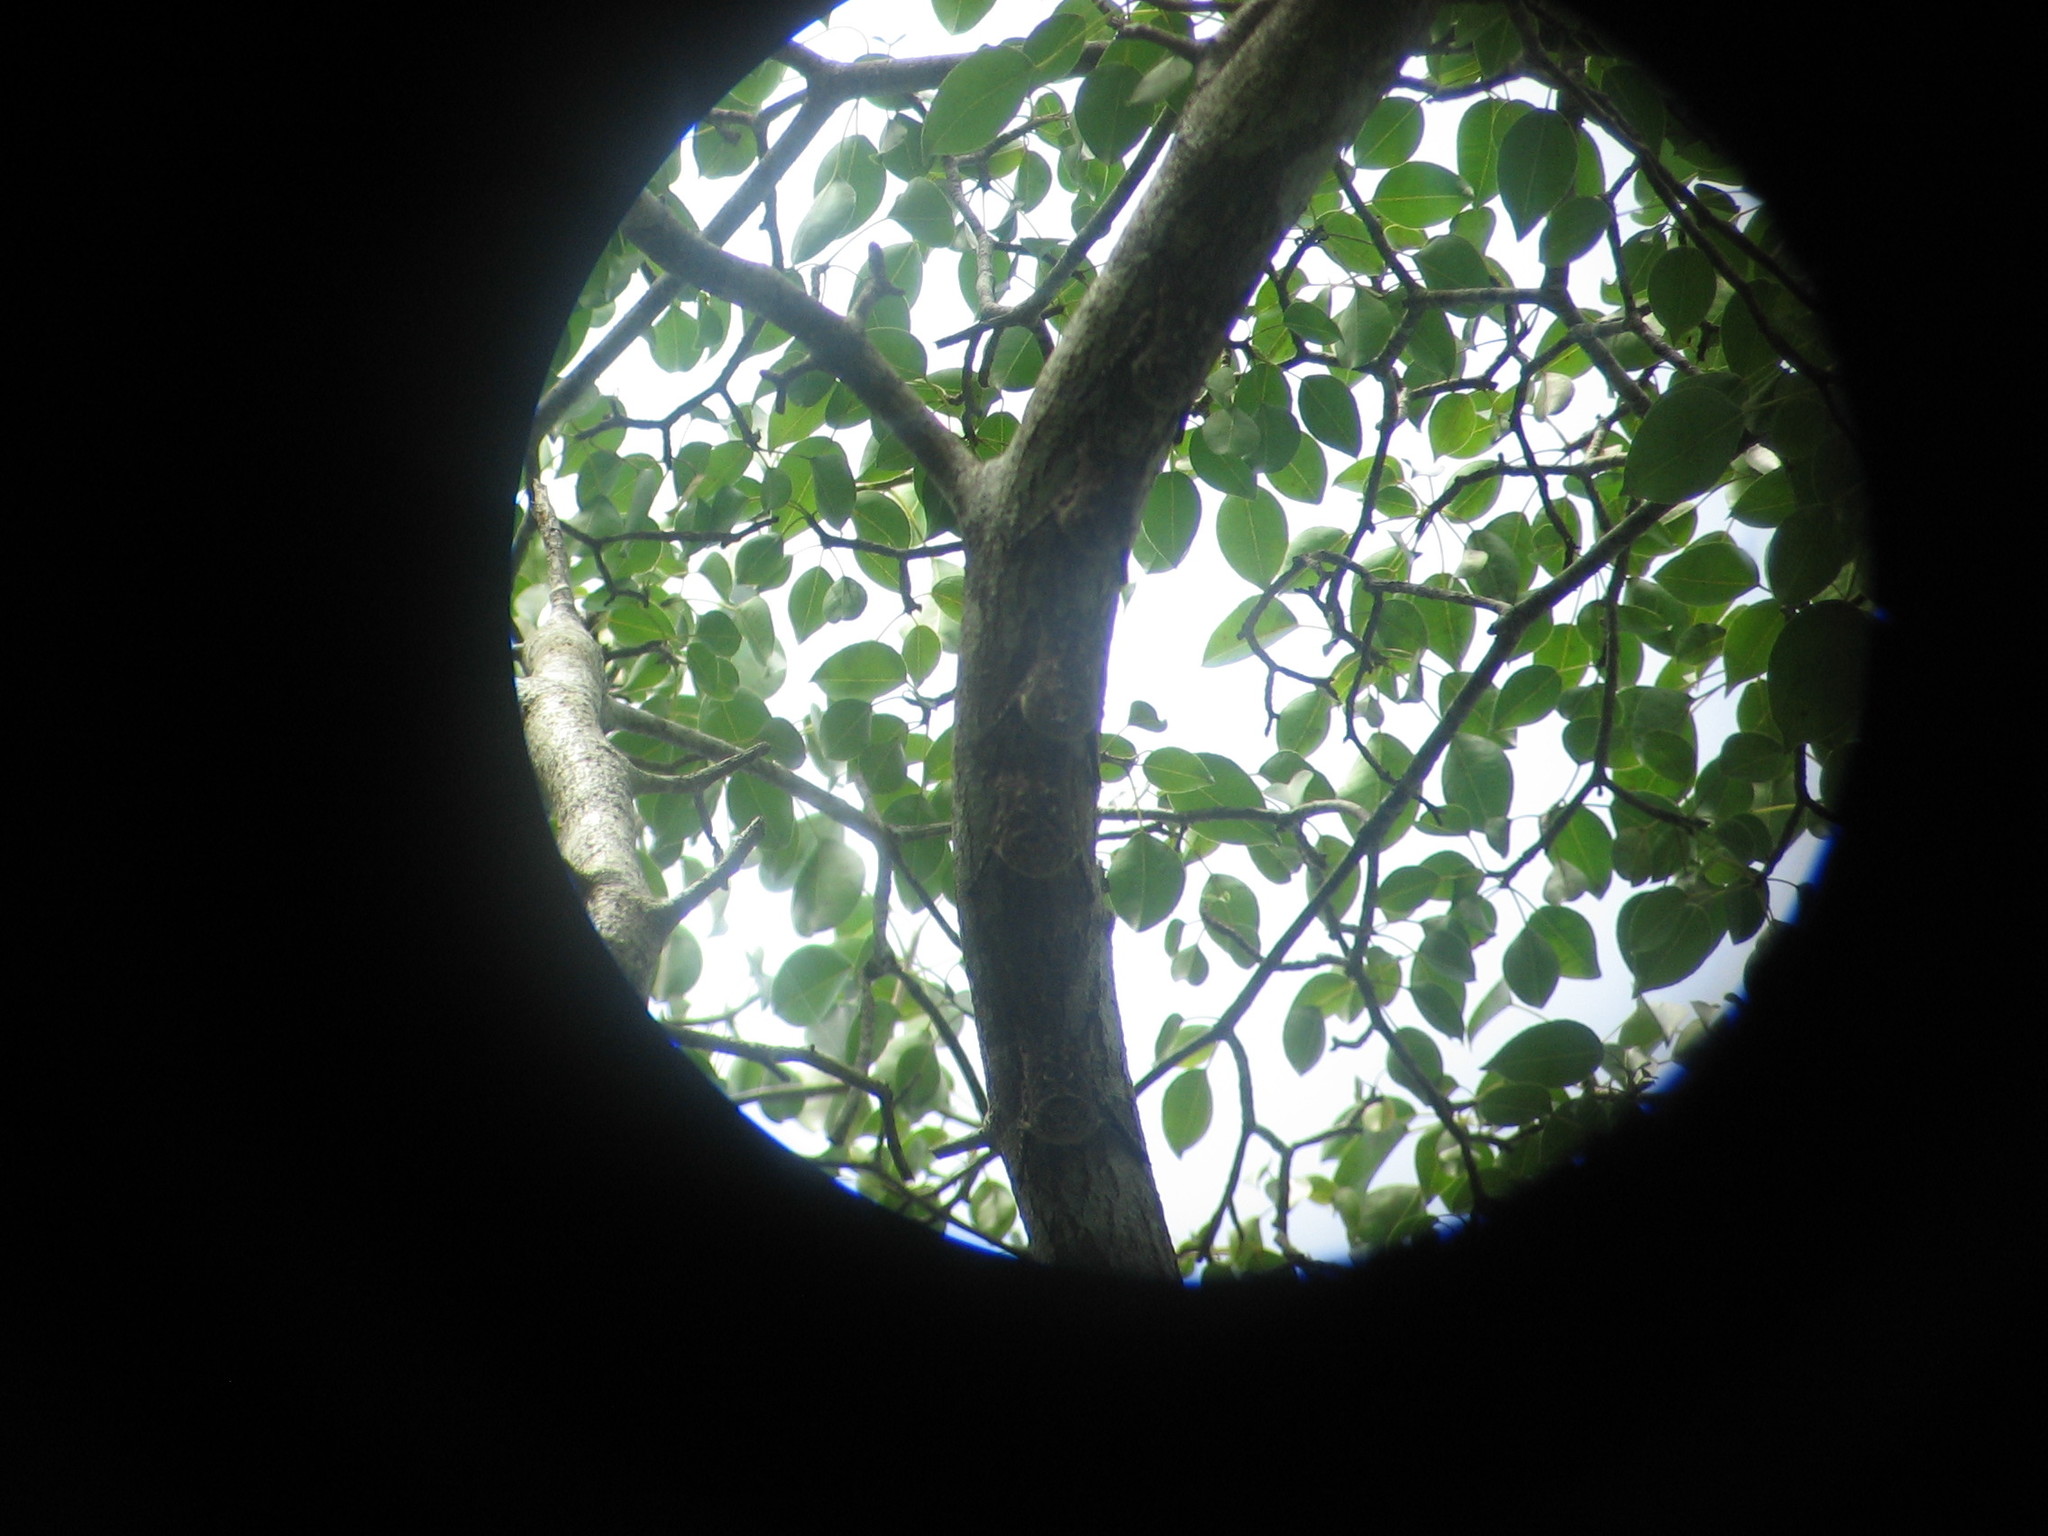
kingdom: Animalia
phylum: Chordata
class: Mammalia
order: Chiroptera
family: Emballonuridae
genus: Rhynchonycteris
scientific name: Rhynchonycteris naso
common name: Proboscis bat
